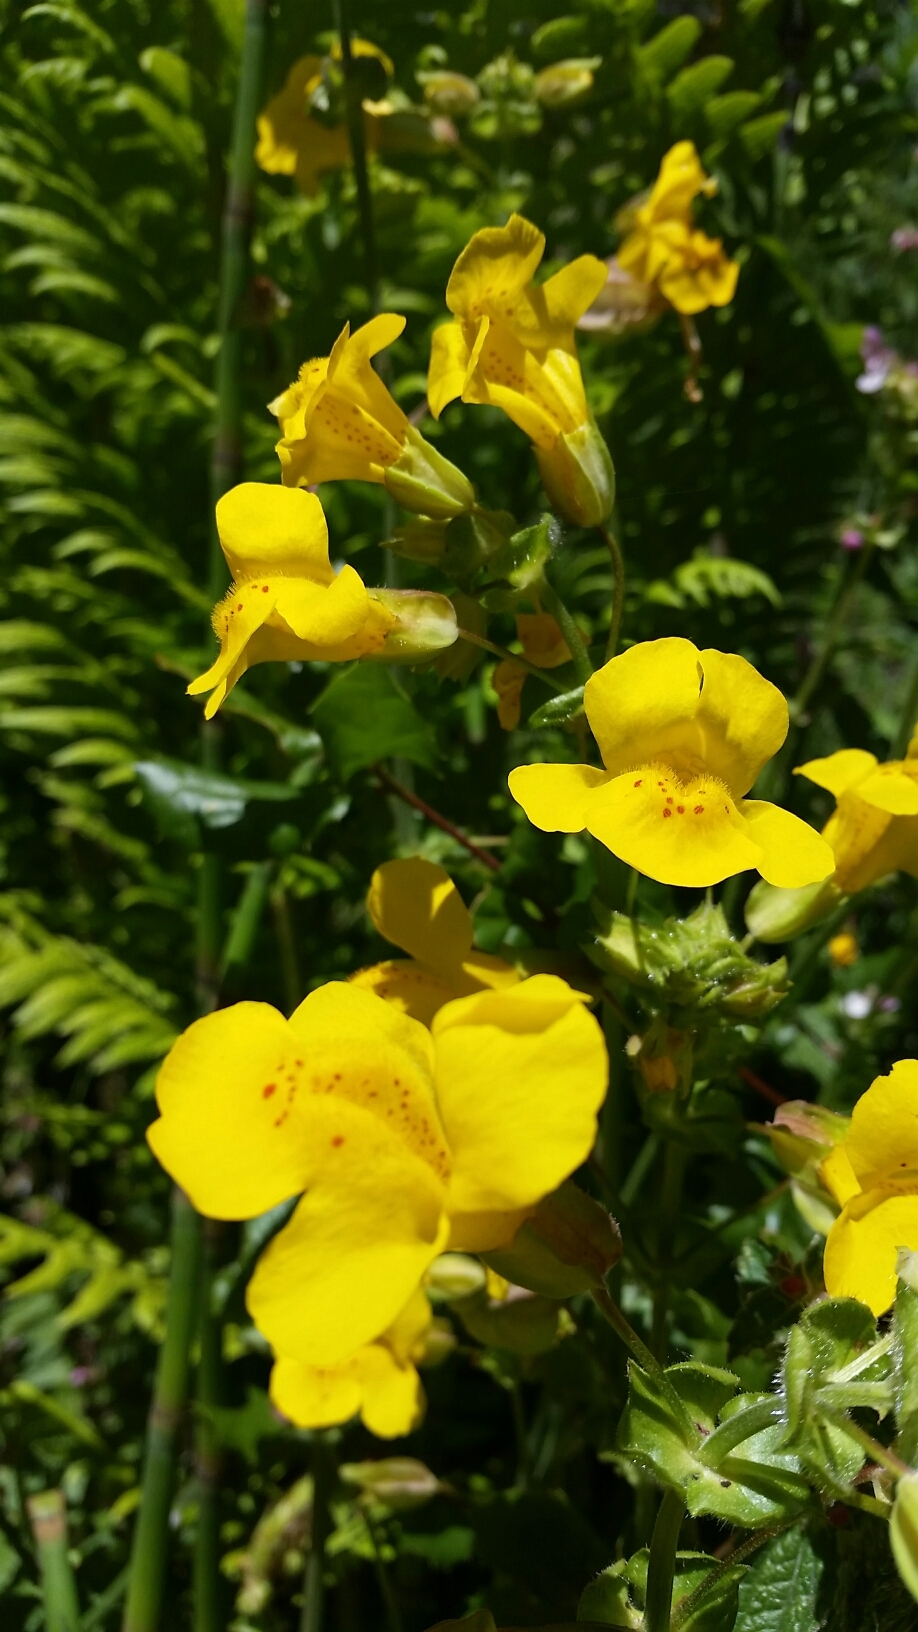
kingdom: Plantae
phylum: Tracheophyta
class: Magnoliopsida
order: Lamiales
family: Phrymaceae
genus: Erythranthe
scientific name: Erythranthe guttata
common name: Monkeyflower
